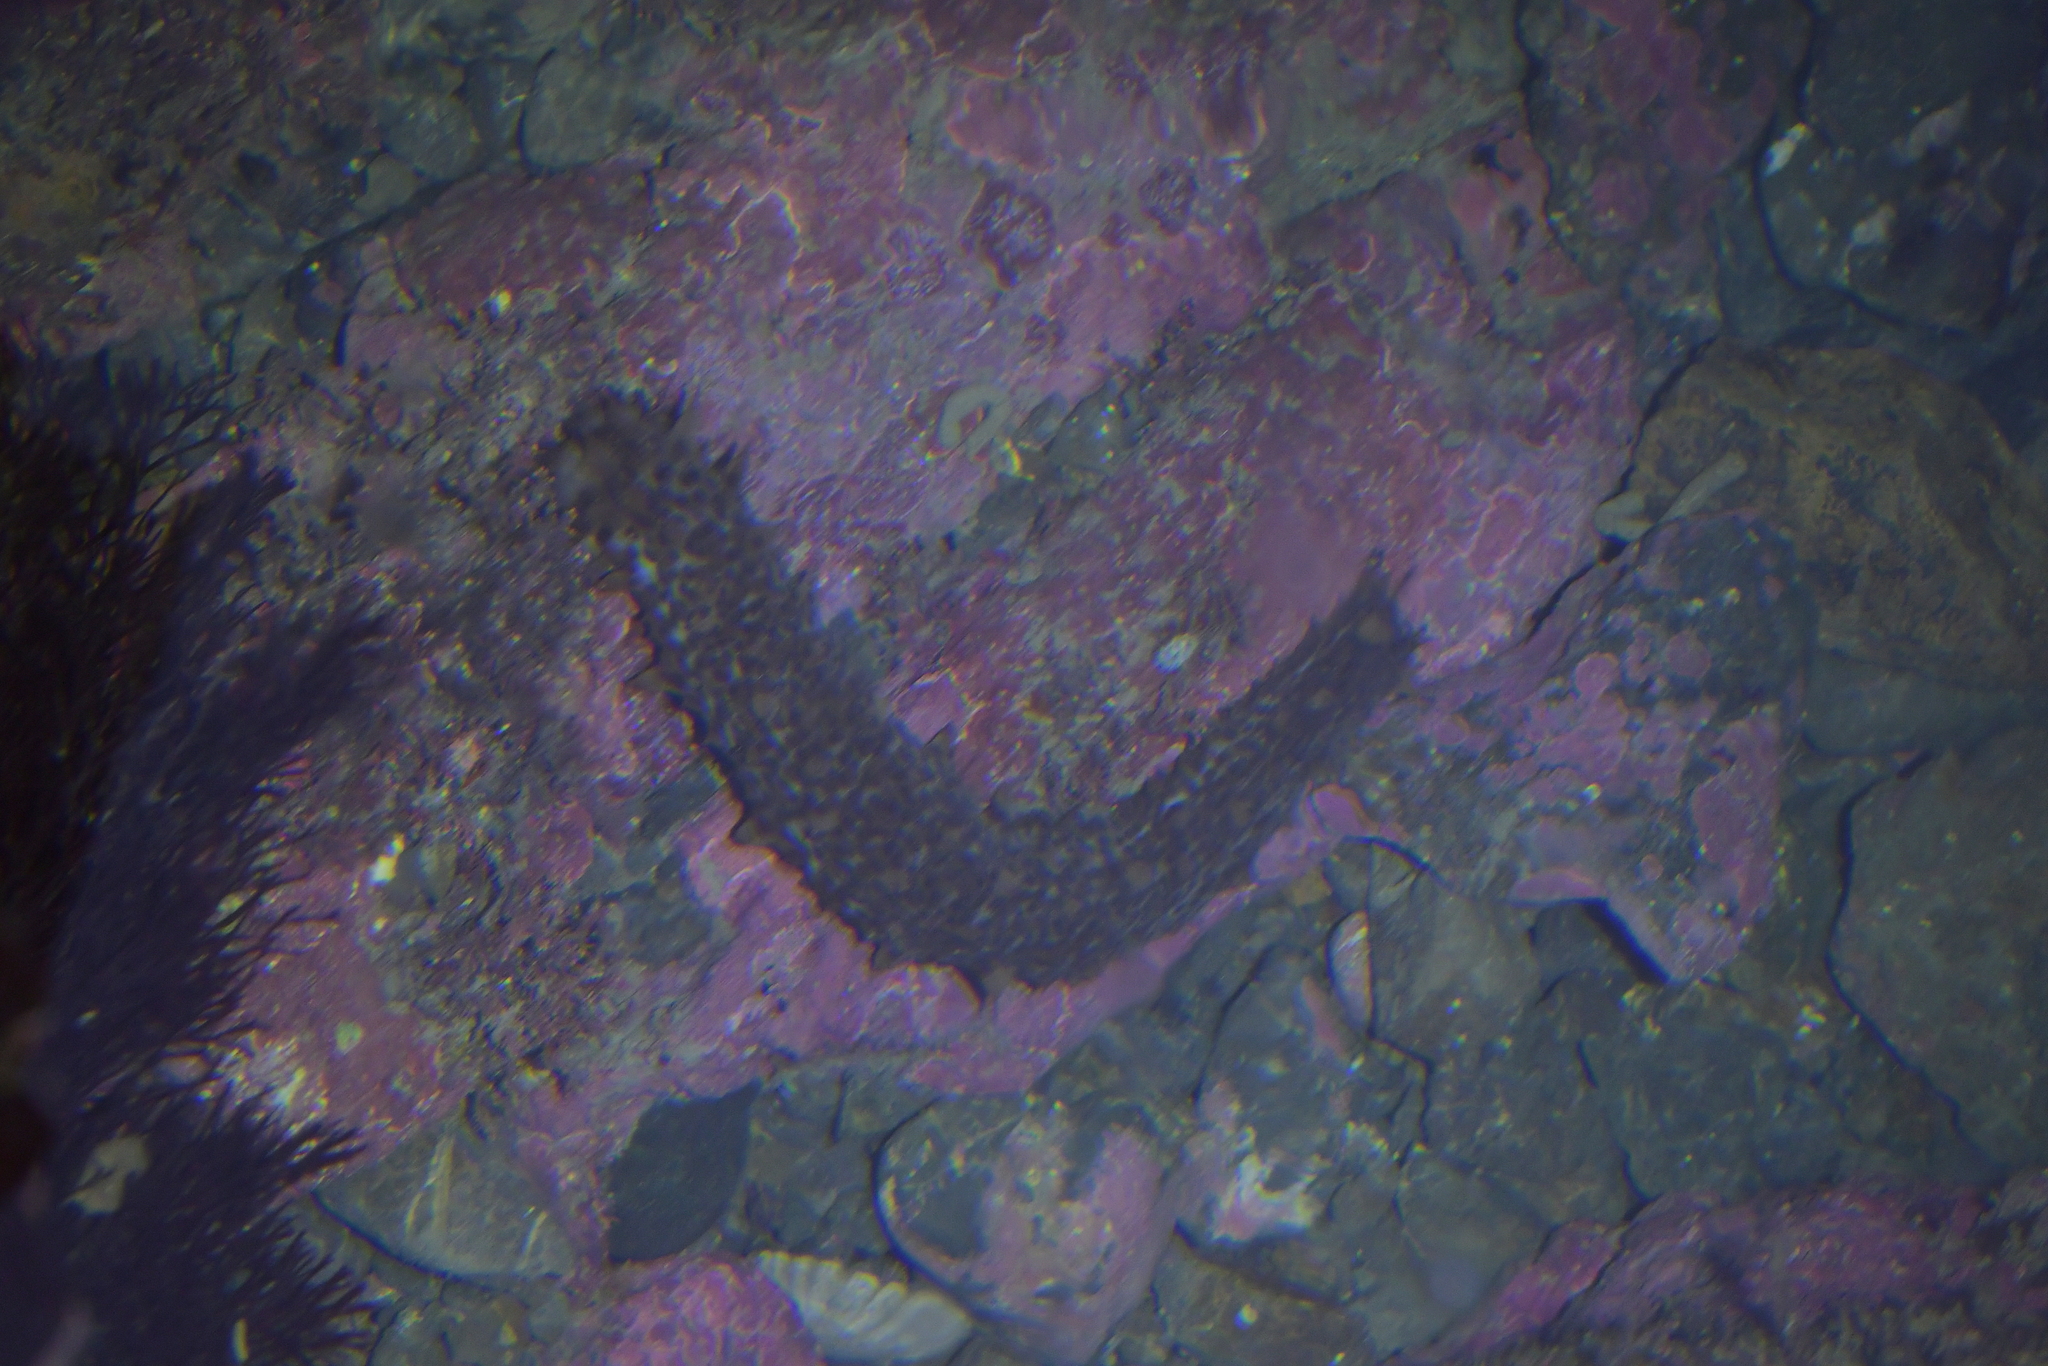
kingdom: Animalia
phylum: Echinodermata
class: Holothuroidea
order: Synallactida
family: Stichopodidae
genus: Australostichopus
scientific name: Australostichopus mollis
